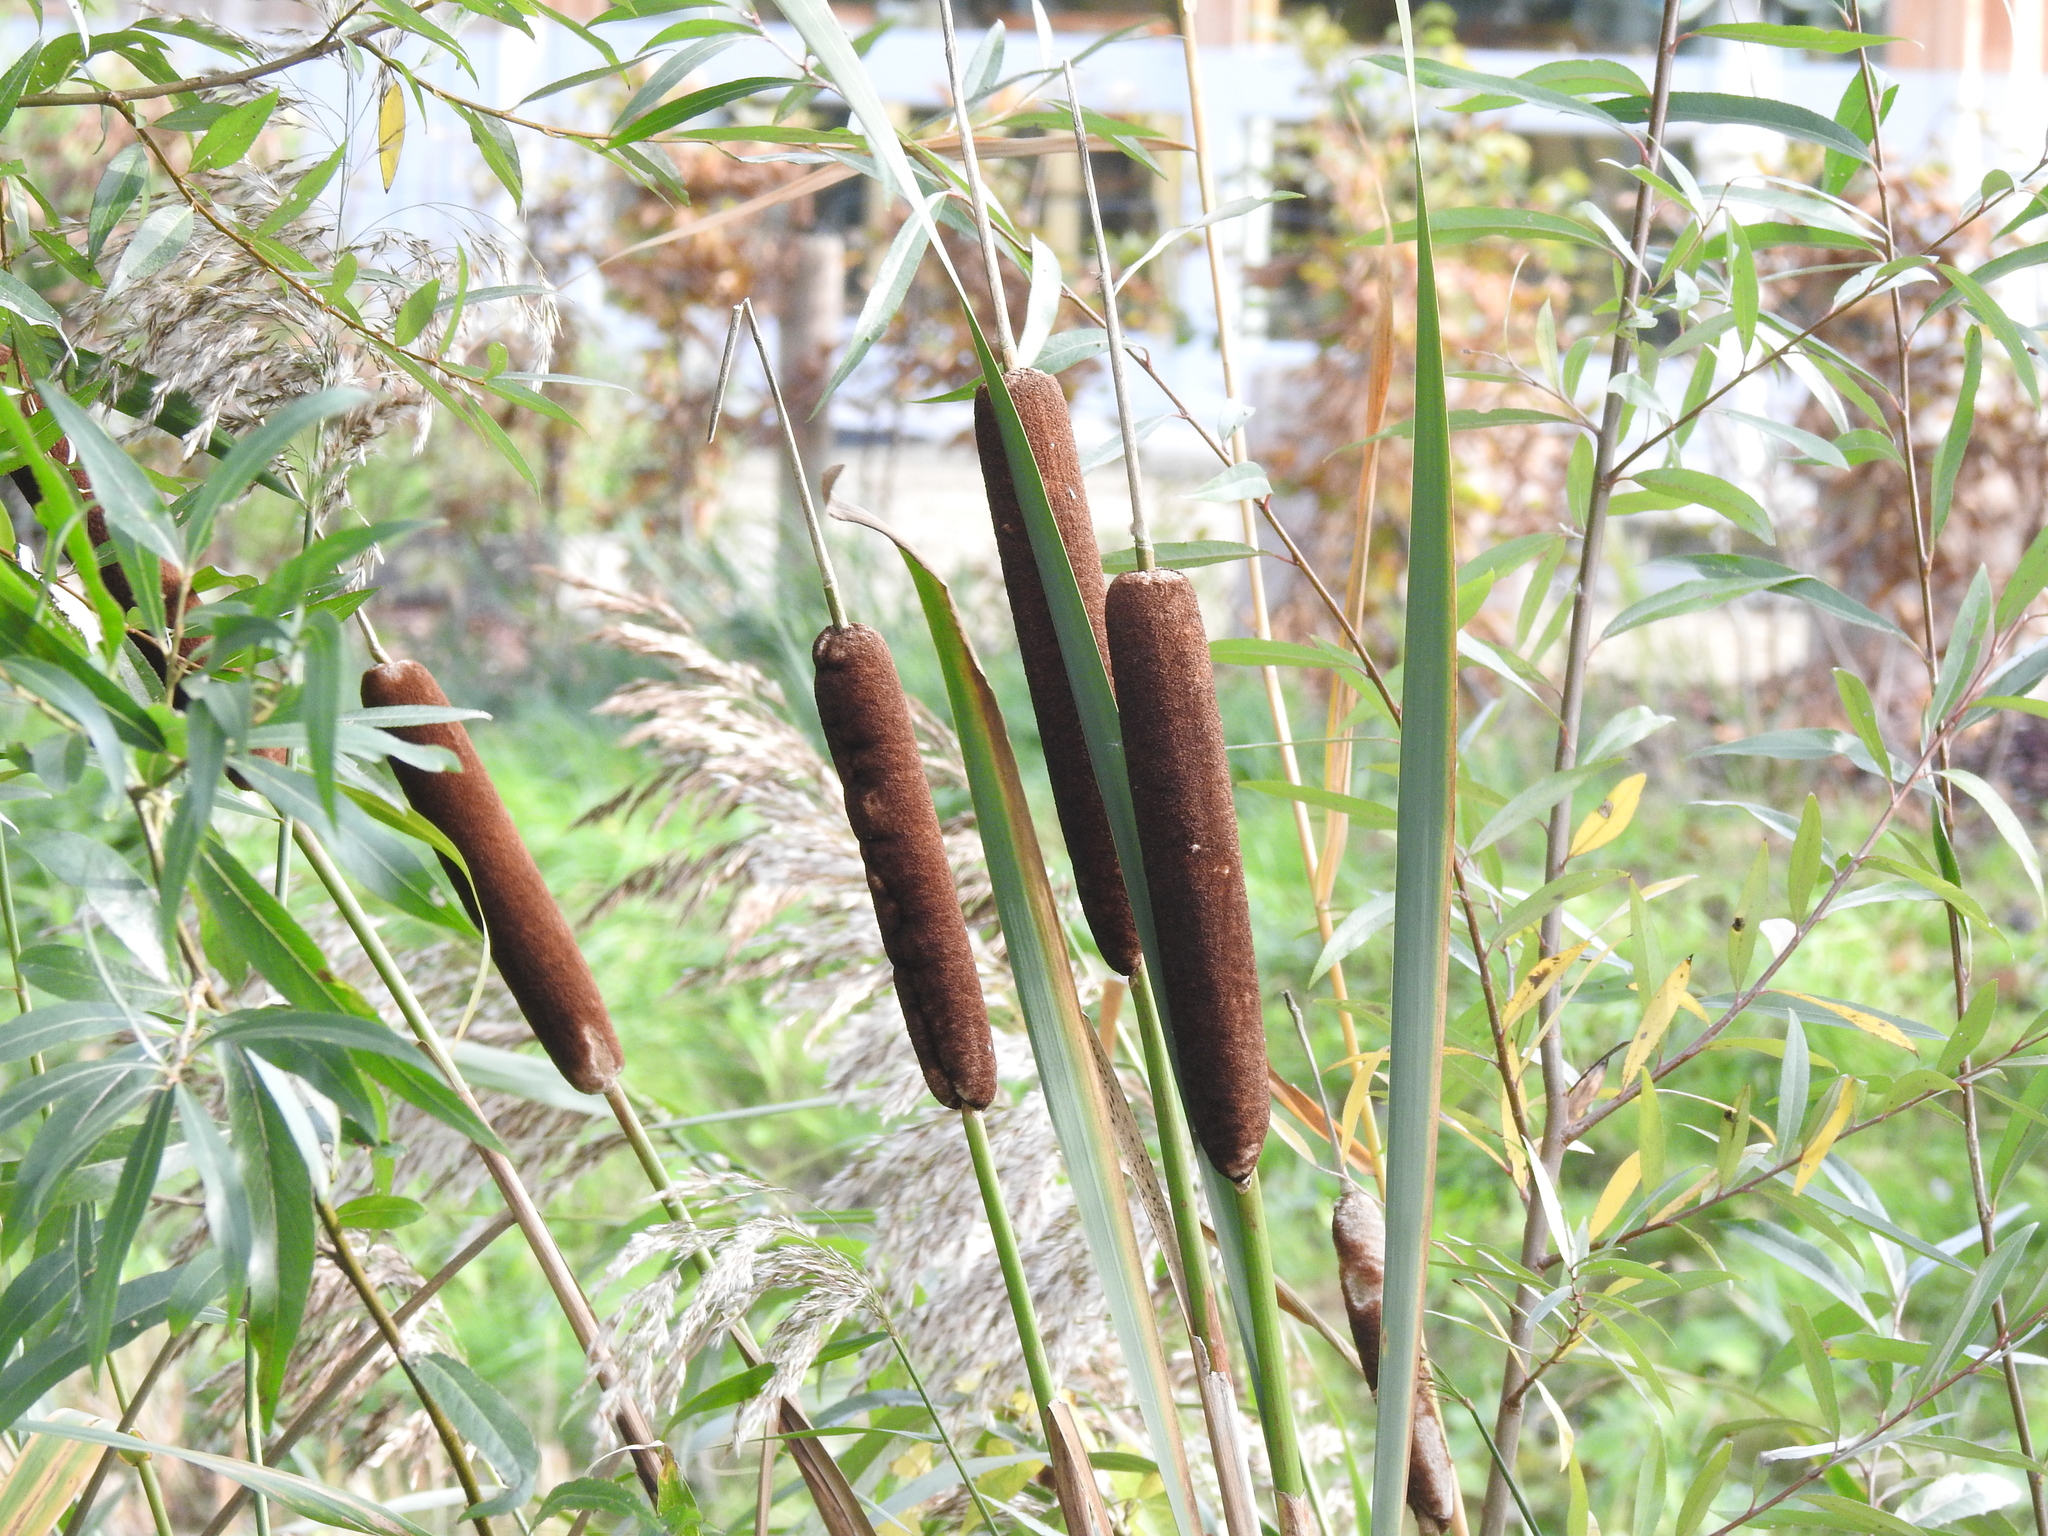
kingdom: Plantae
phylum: Tracheophyta
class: Liliopsida
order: Poales
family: Typhaceae
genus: Typha
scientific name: Typha latifolia
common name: Broadleaf cattail
